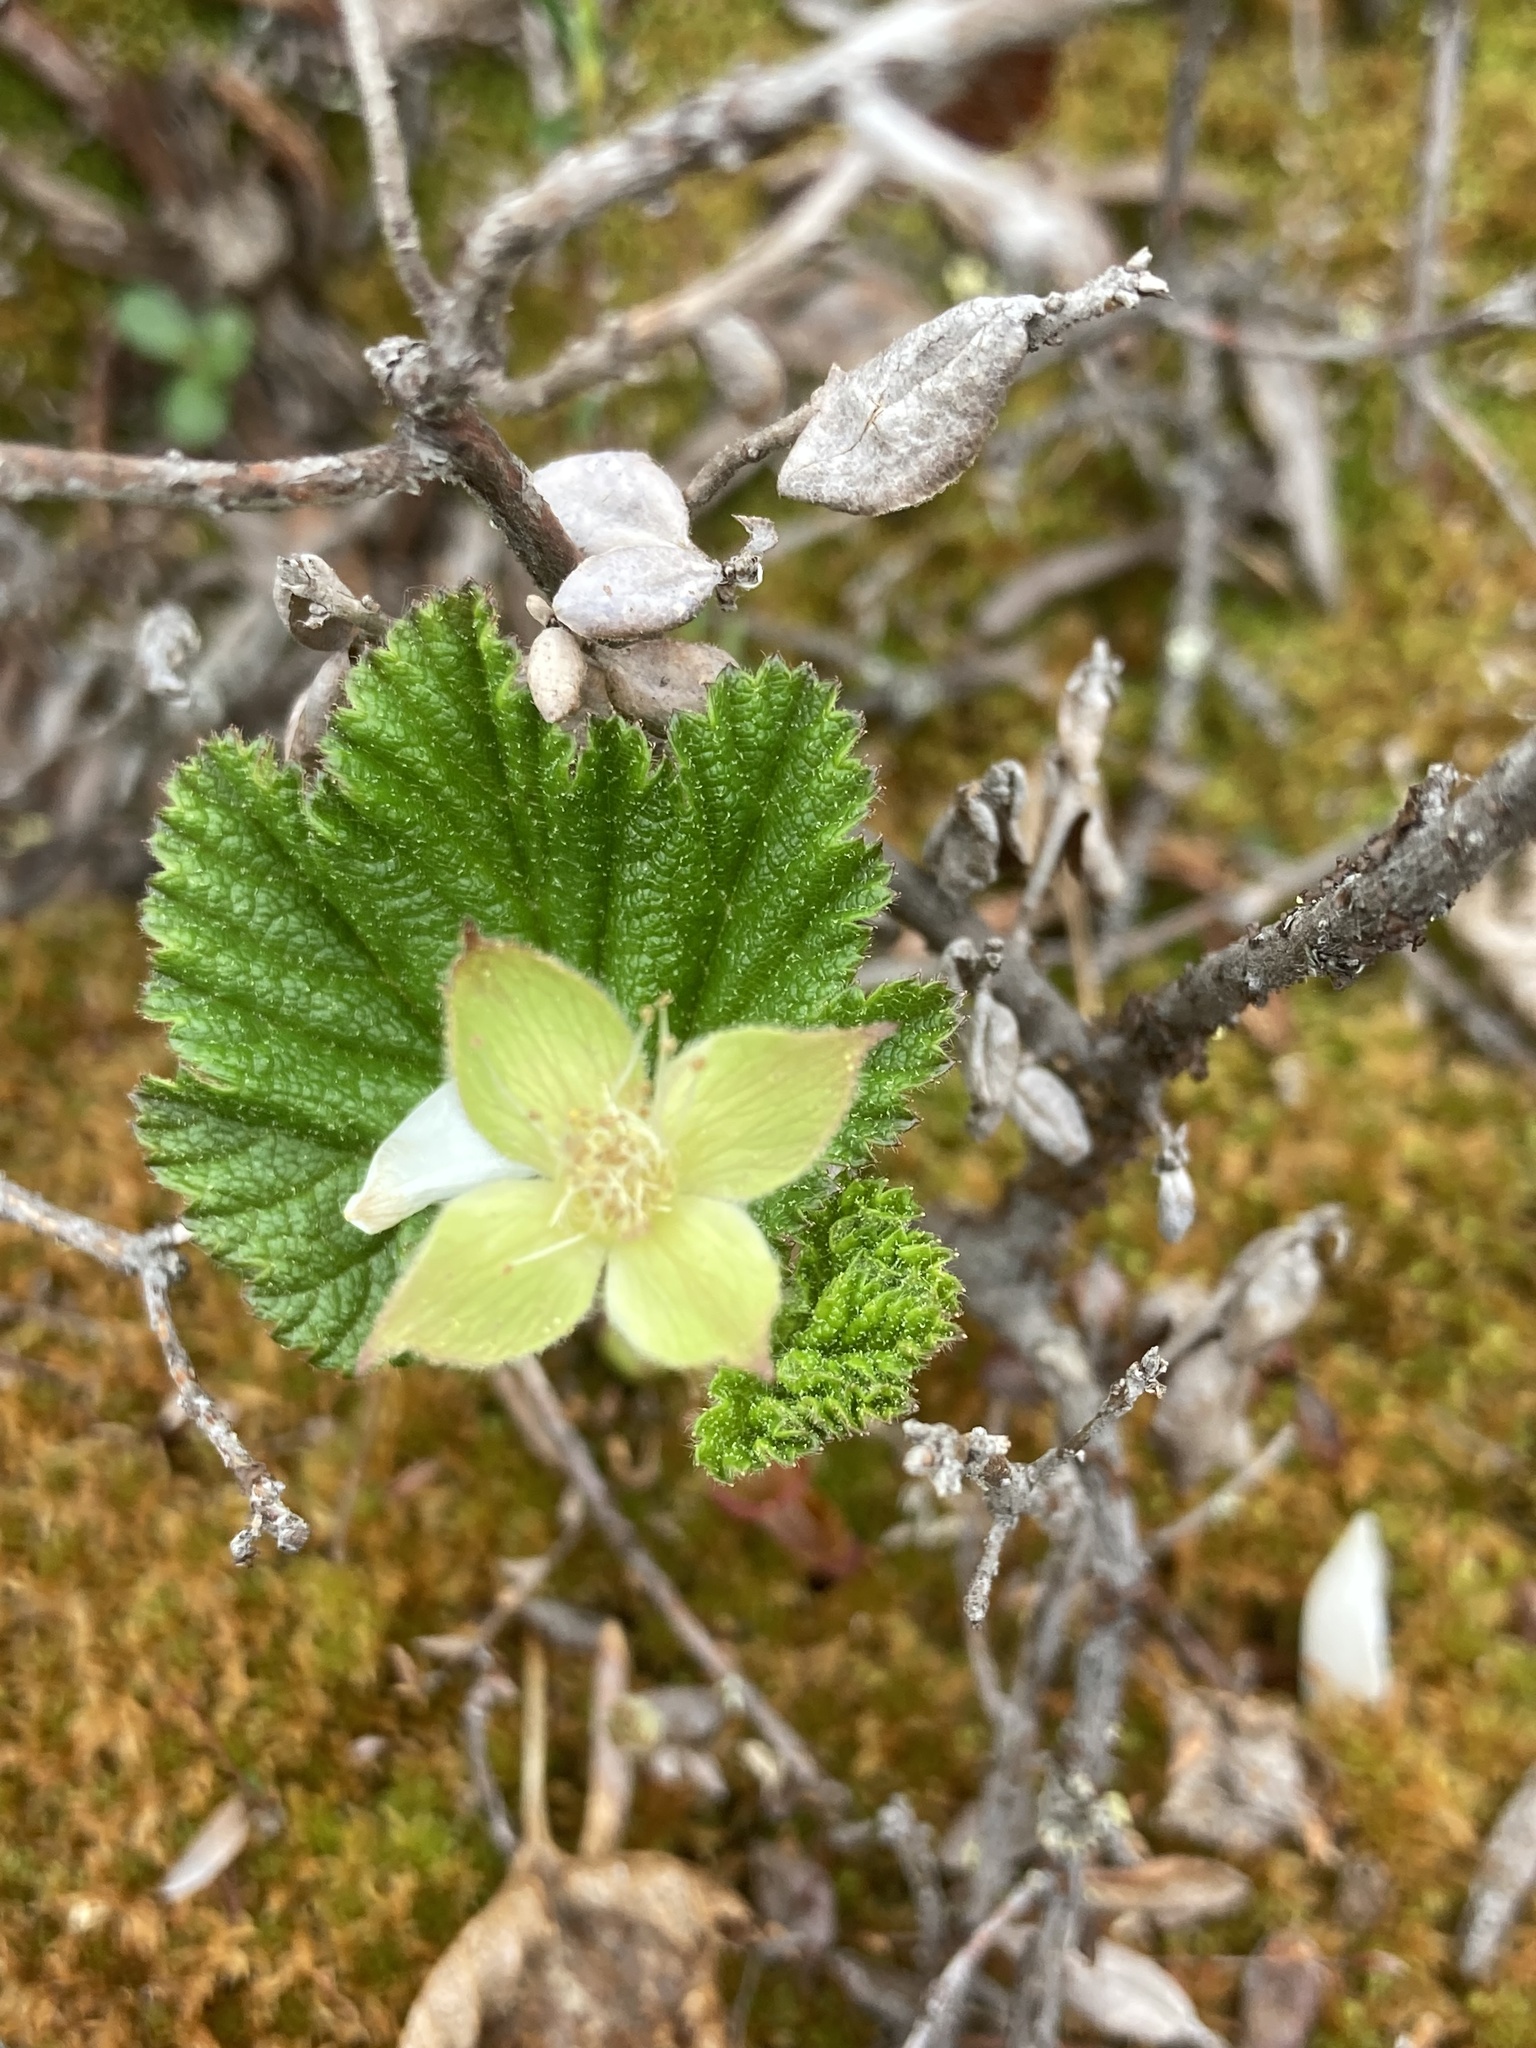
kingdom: Plantae
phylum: Tracheophyta
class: Magnoliopsida
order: Rosales
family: Rosaceae
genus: Rubus
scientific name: Rubus chamaemorus
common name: Cloudberry
